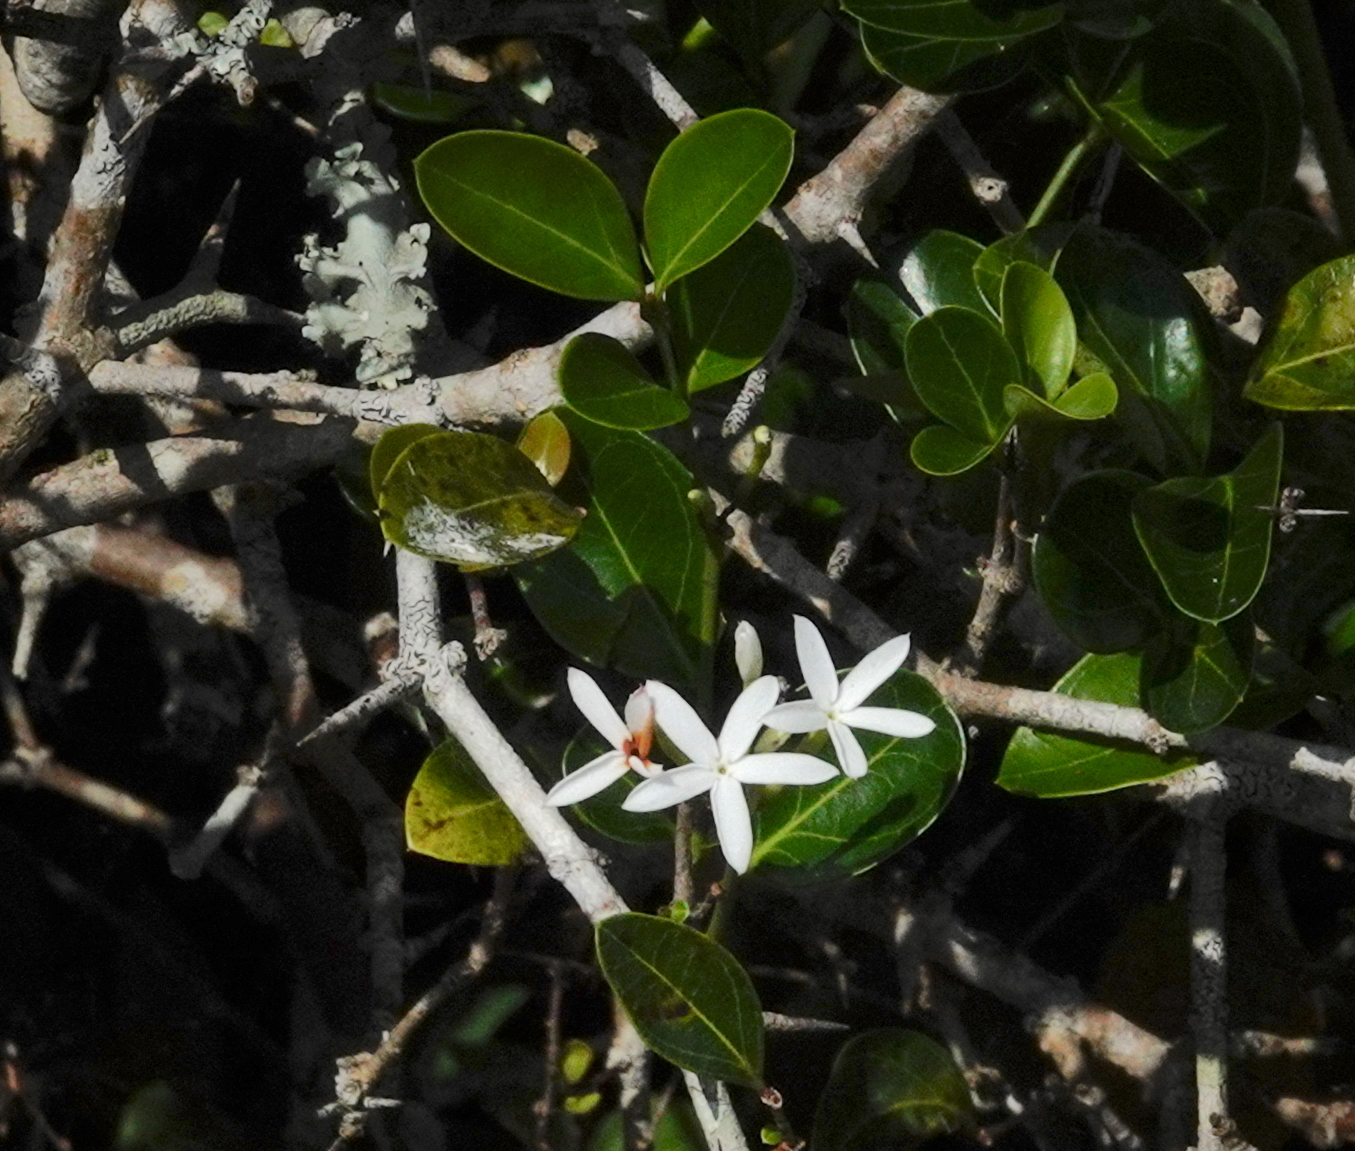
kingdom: Plantae
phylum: Tracheophyta
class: Magnoliopsida
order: Gentianales
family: Apocynaceae
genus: Carissa
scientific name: Carissa spinarum
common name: Egyptian carissa
